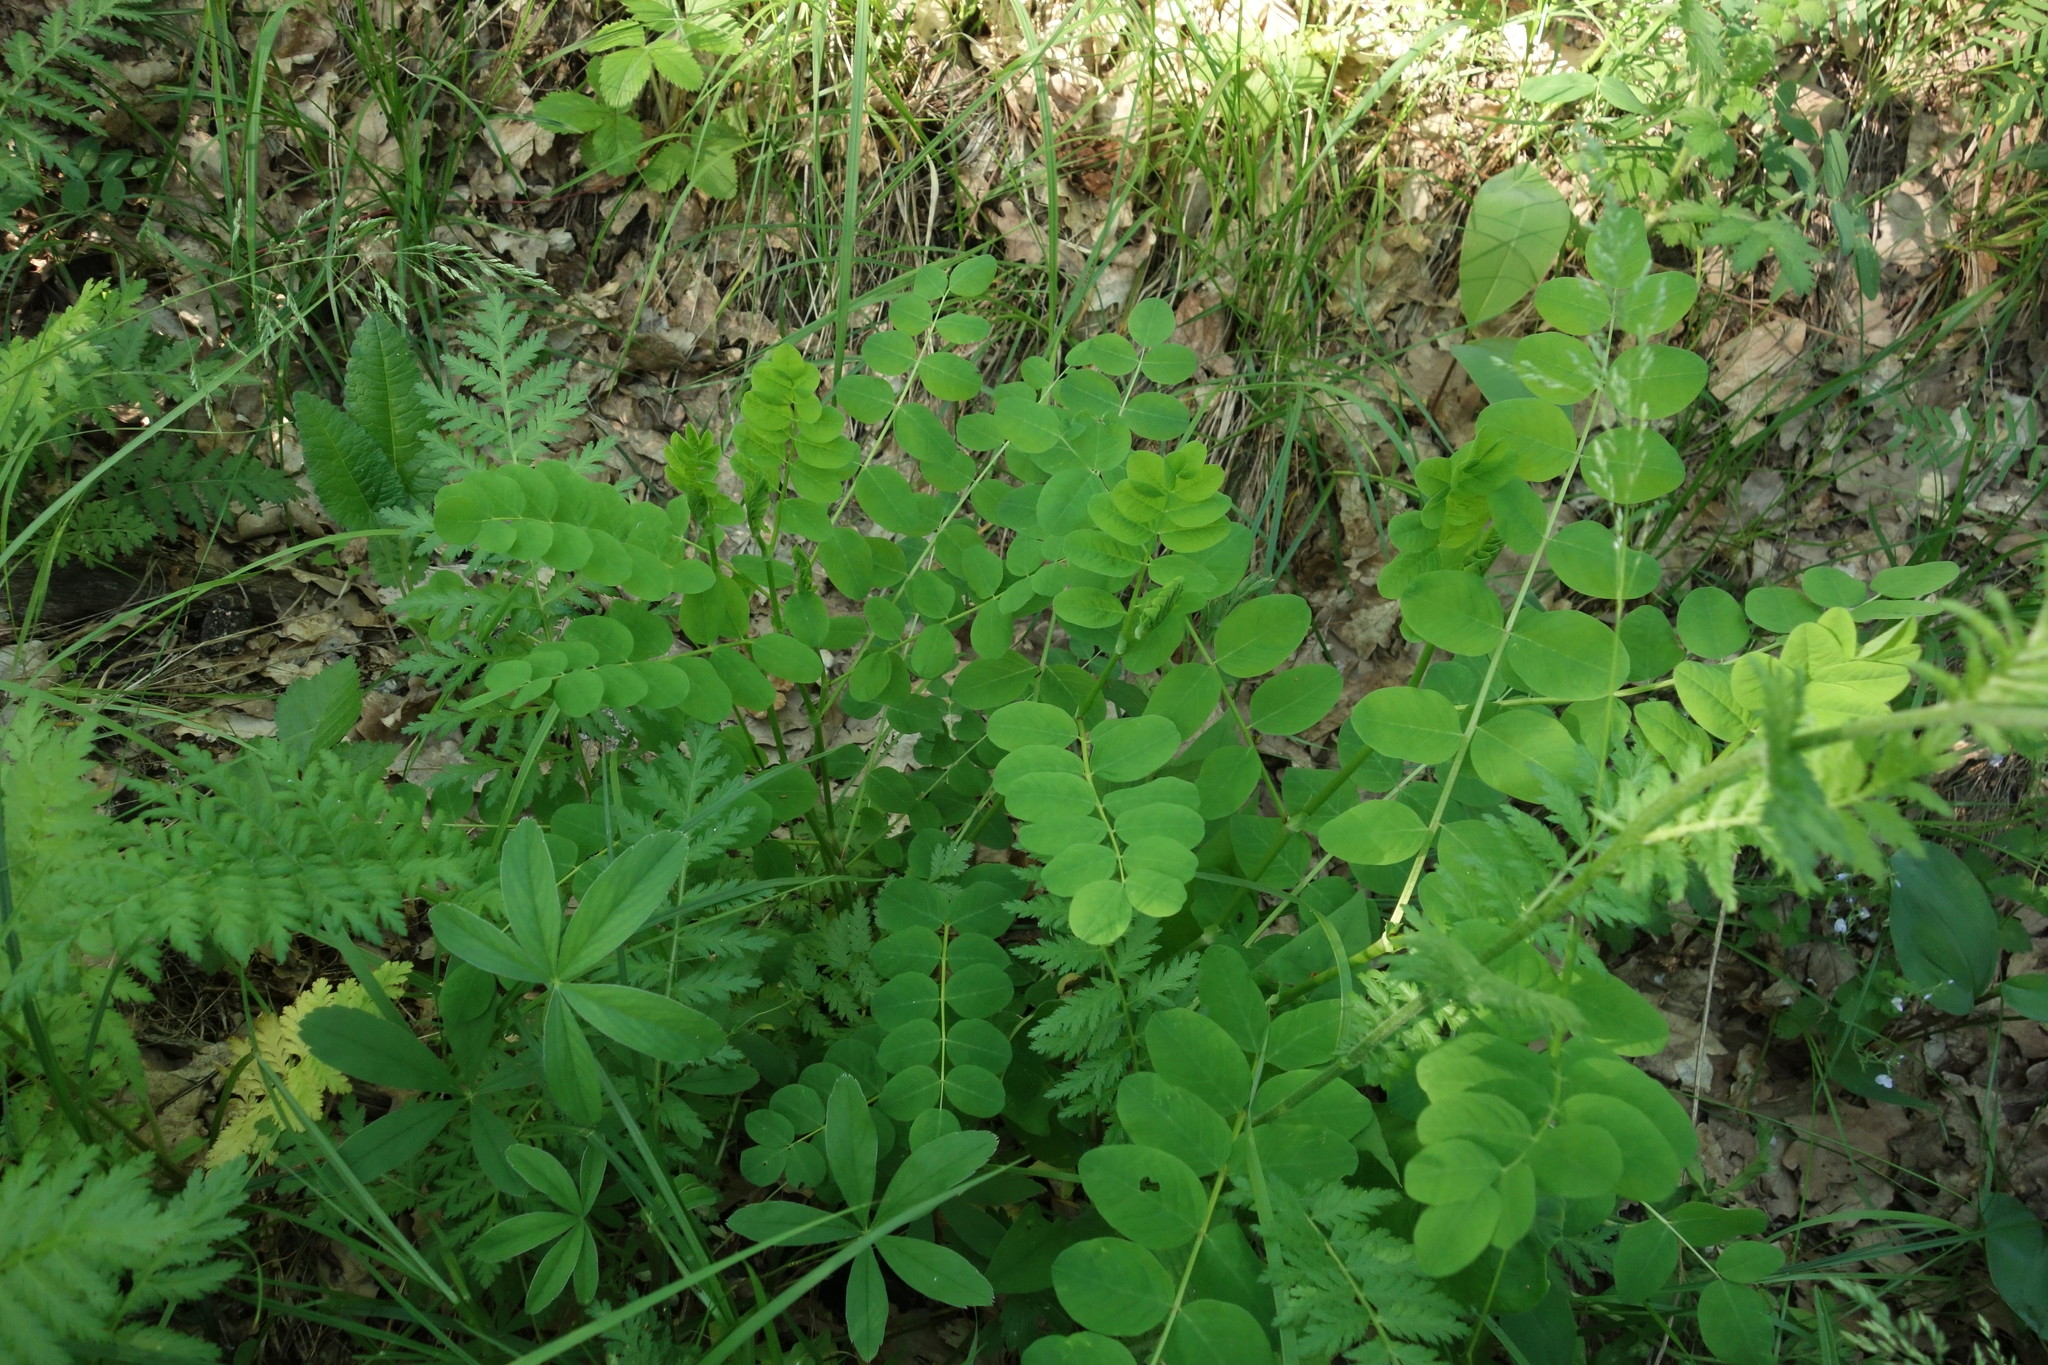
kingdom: Plantae
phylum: Tracheophyta
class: Magnoliopsida
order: Fabales
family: Fabaceae
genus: Astragalus
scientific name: Astragalus glycyphyllos
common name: Wild liquorice
